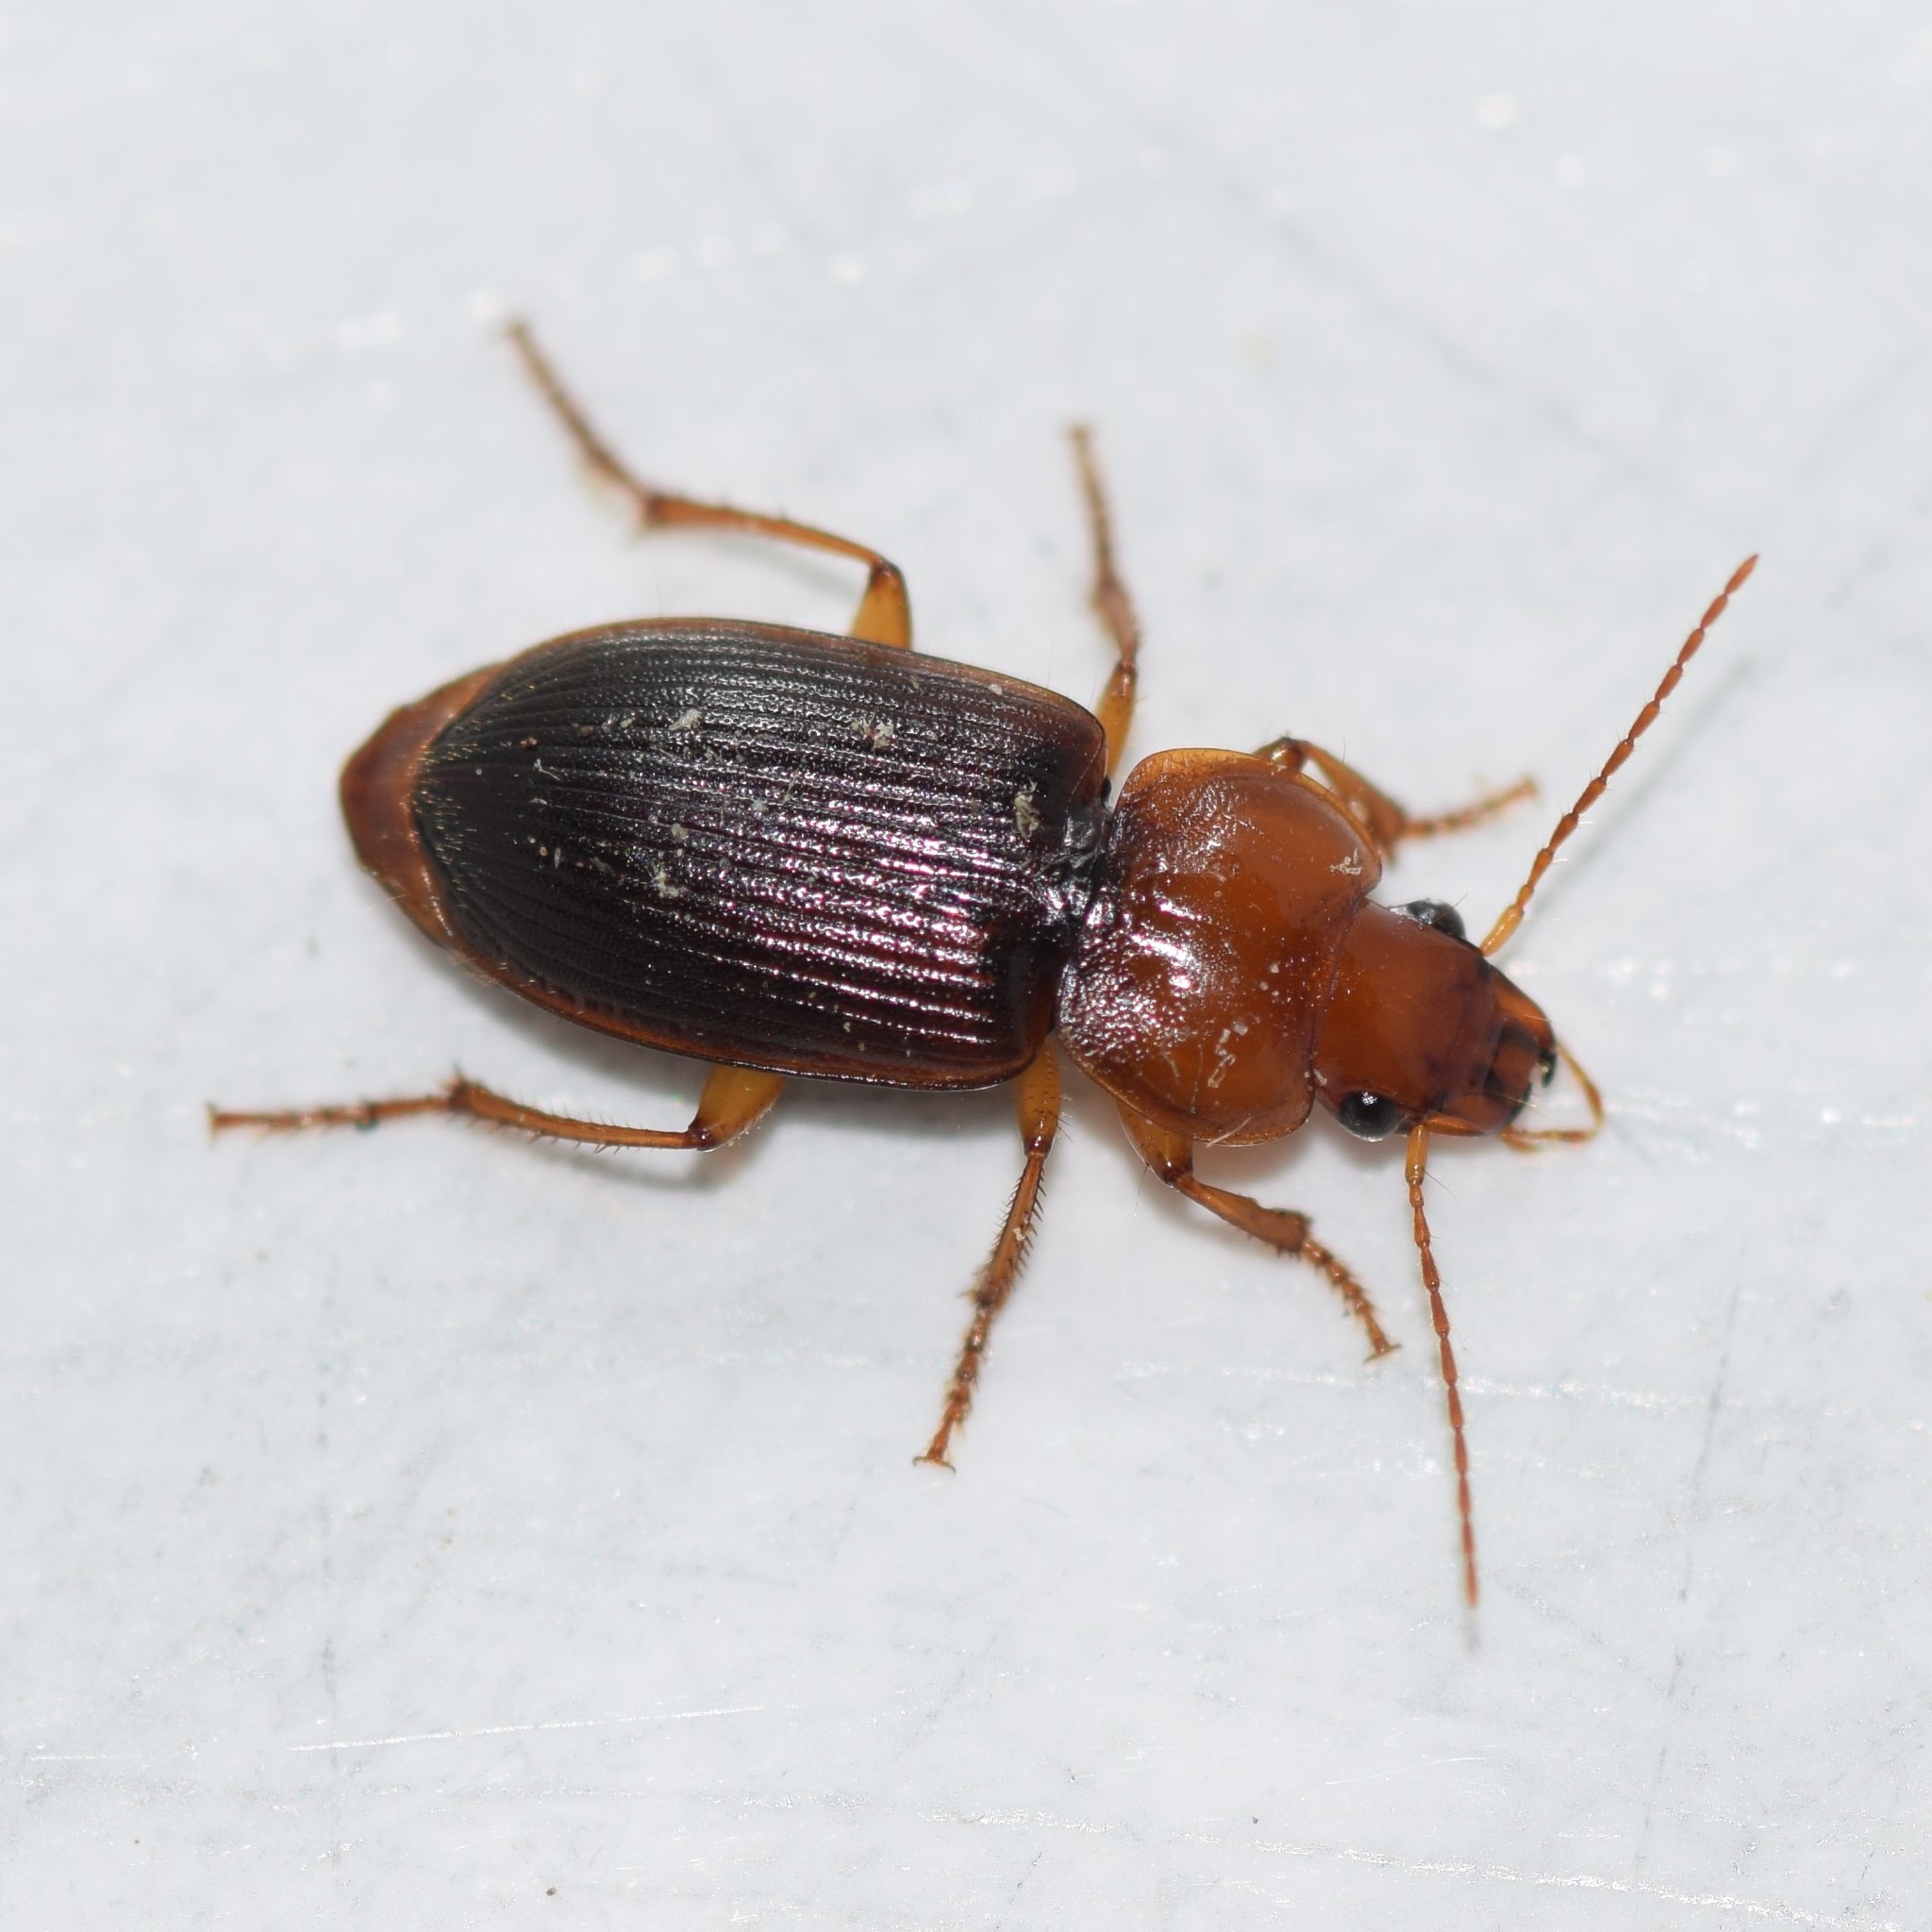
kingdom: Animalia
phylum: Arthropoda
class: Insecta
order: Coleoptera
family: Carabidae
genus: Amphasia
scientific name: Amphasia interstitialis
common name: Red-headed ground beetle
